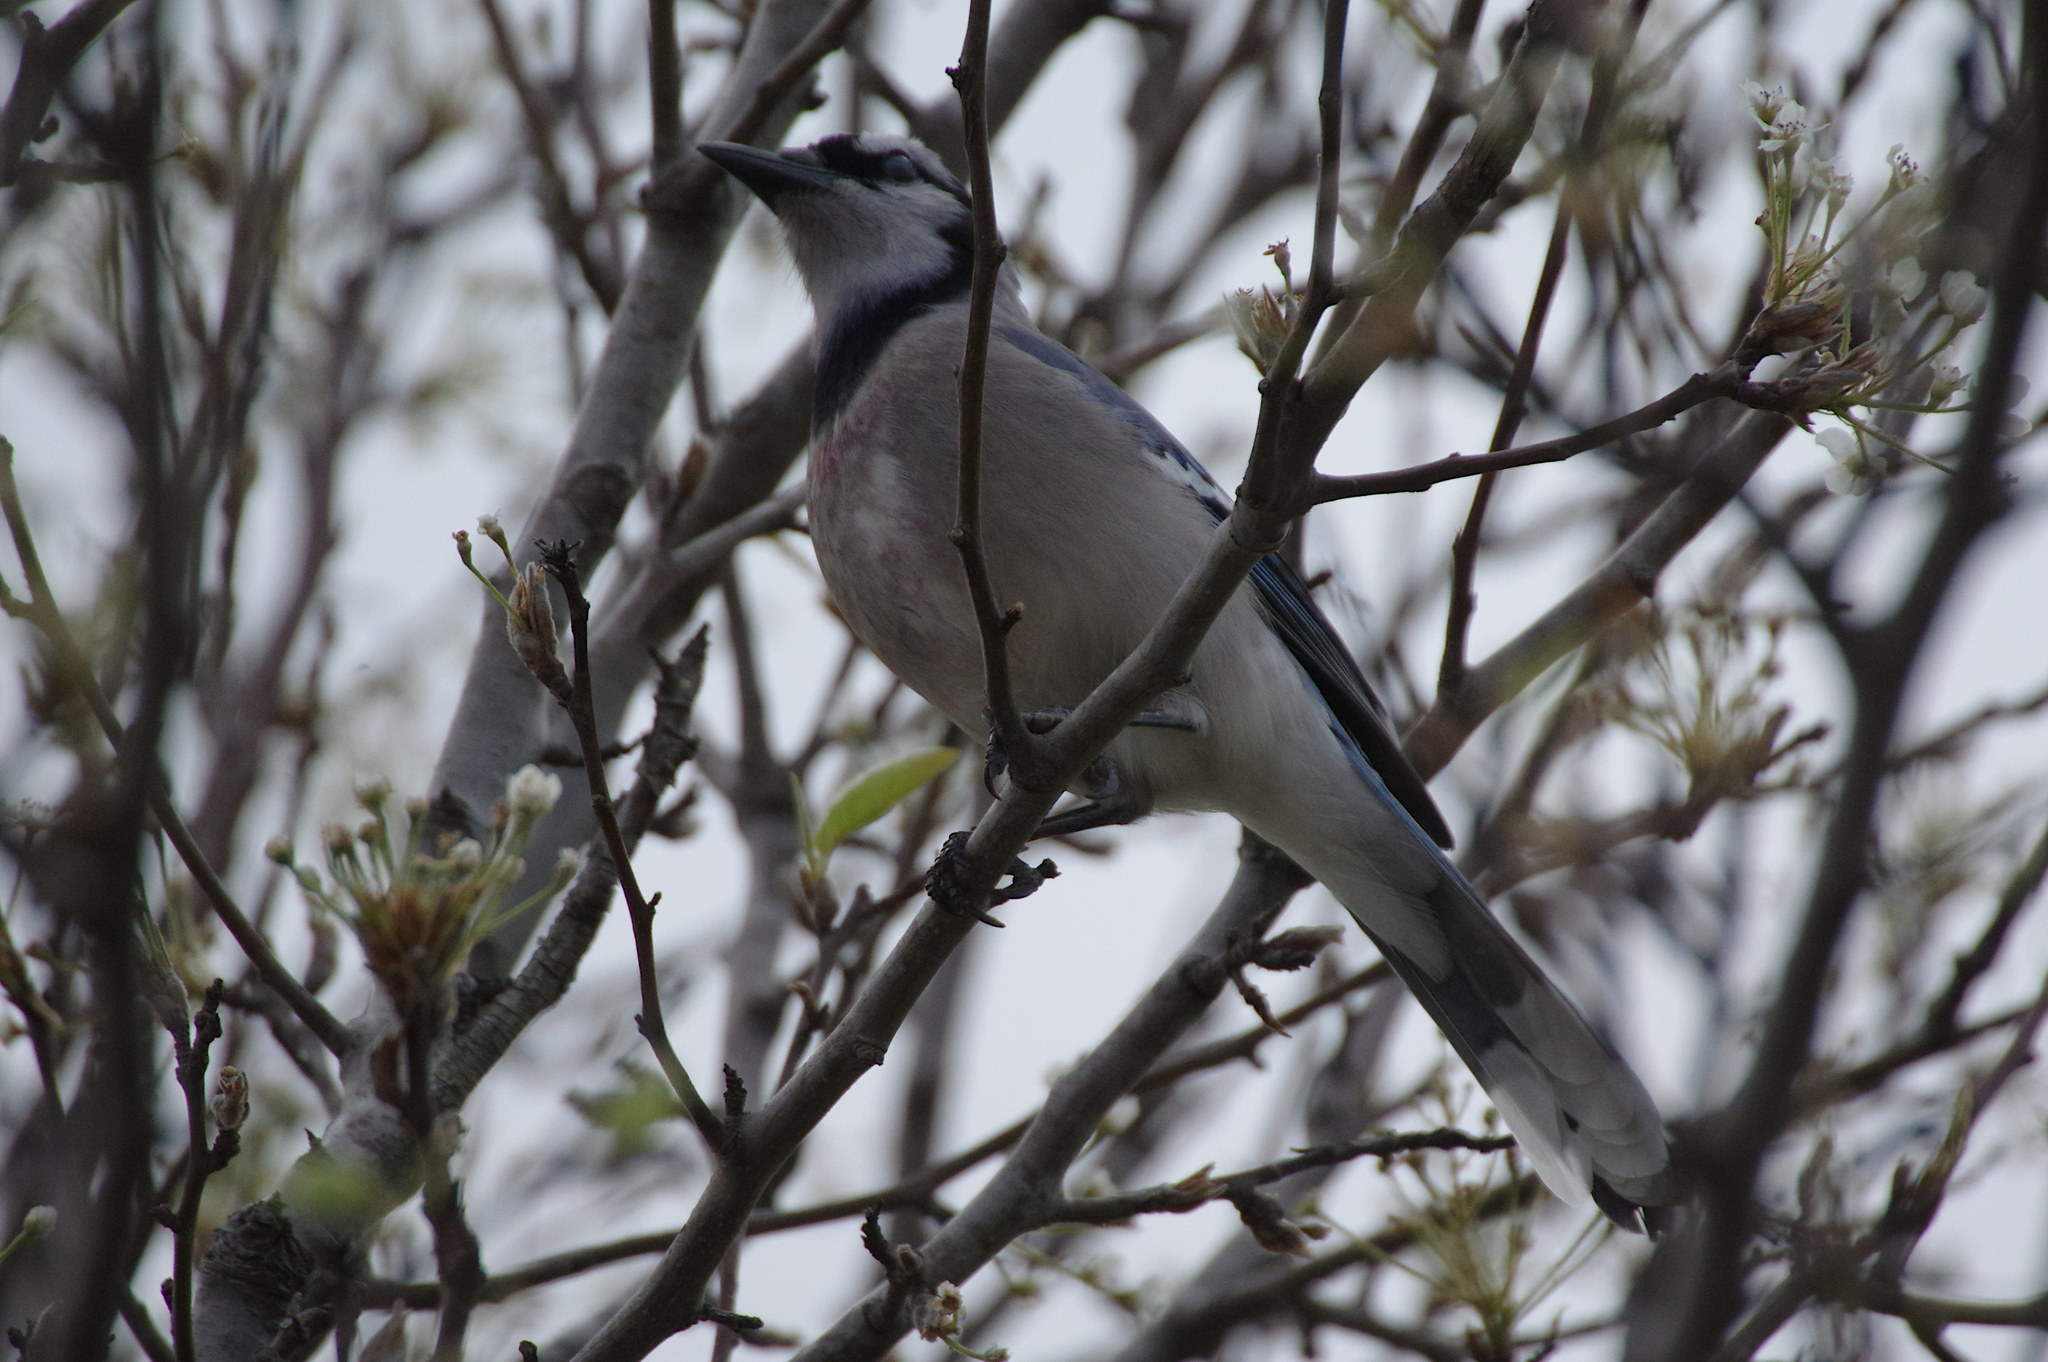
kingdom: Animalia
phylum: Chordata
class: Aves
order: Passeriformes
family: Corvidae
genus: Cyanocitta
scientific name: Cyanocitta cristata
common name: Blue jay
